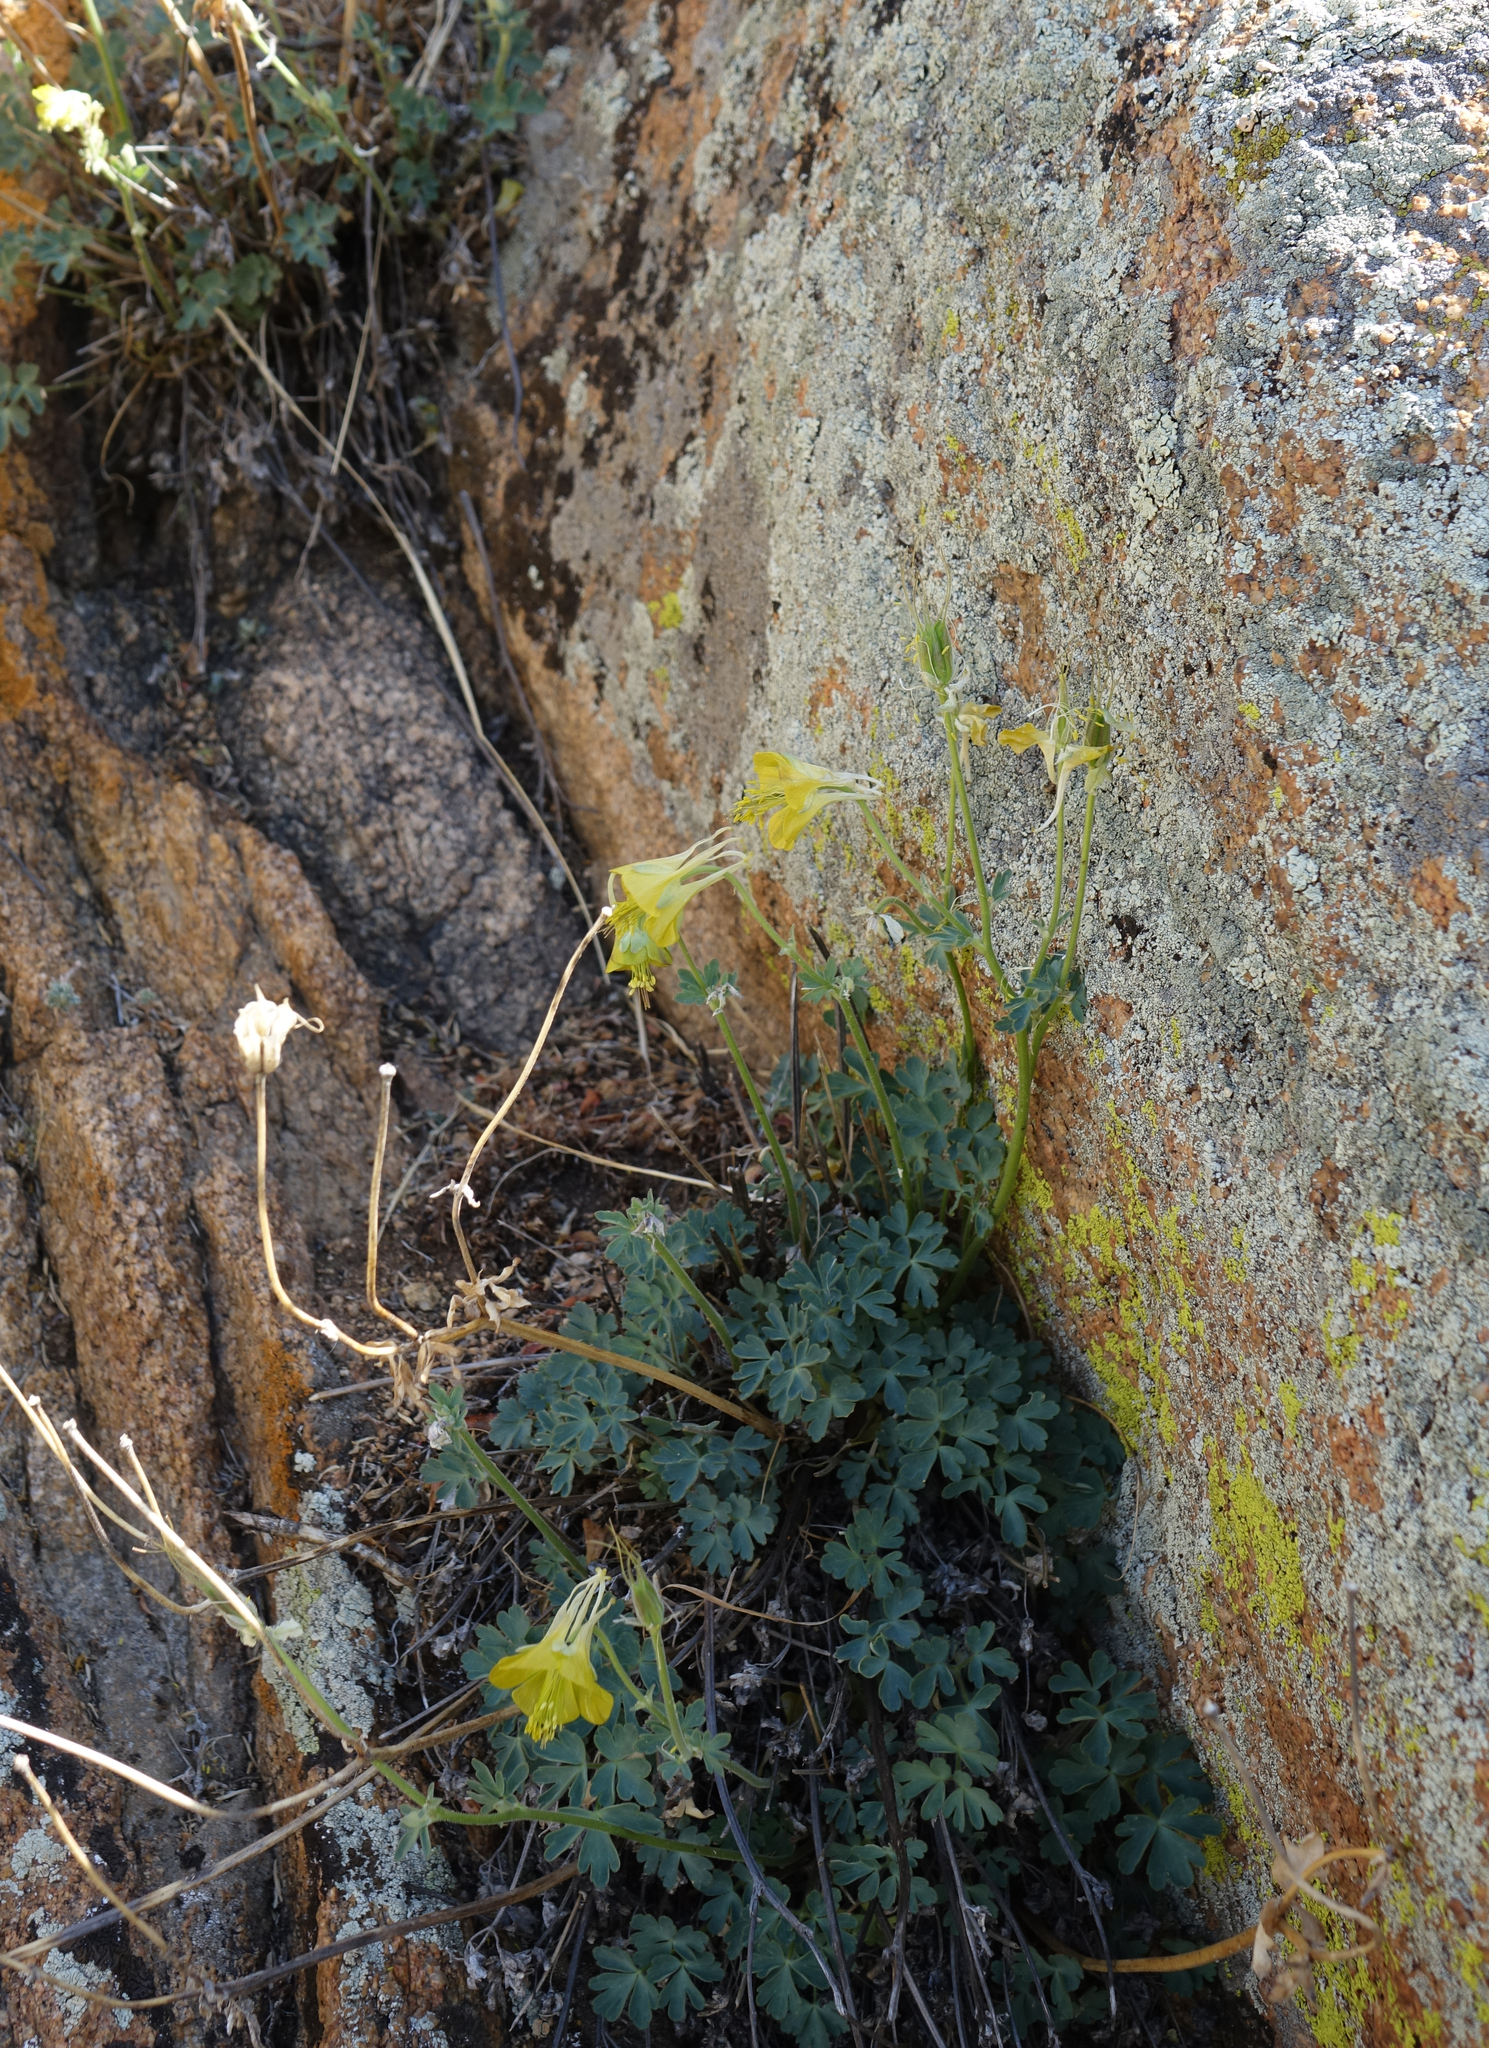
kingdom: Plantae
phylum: Tracheophyta
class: Magnoliopsida
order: Ranunculales
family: Ranunculaceae
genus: Aquilegia
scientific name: Aquilegia viridiflora
